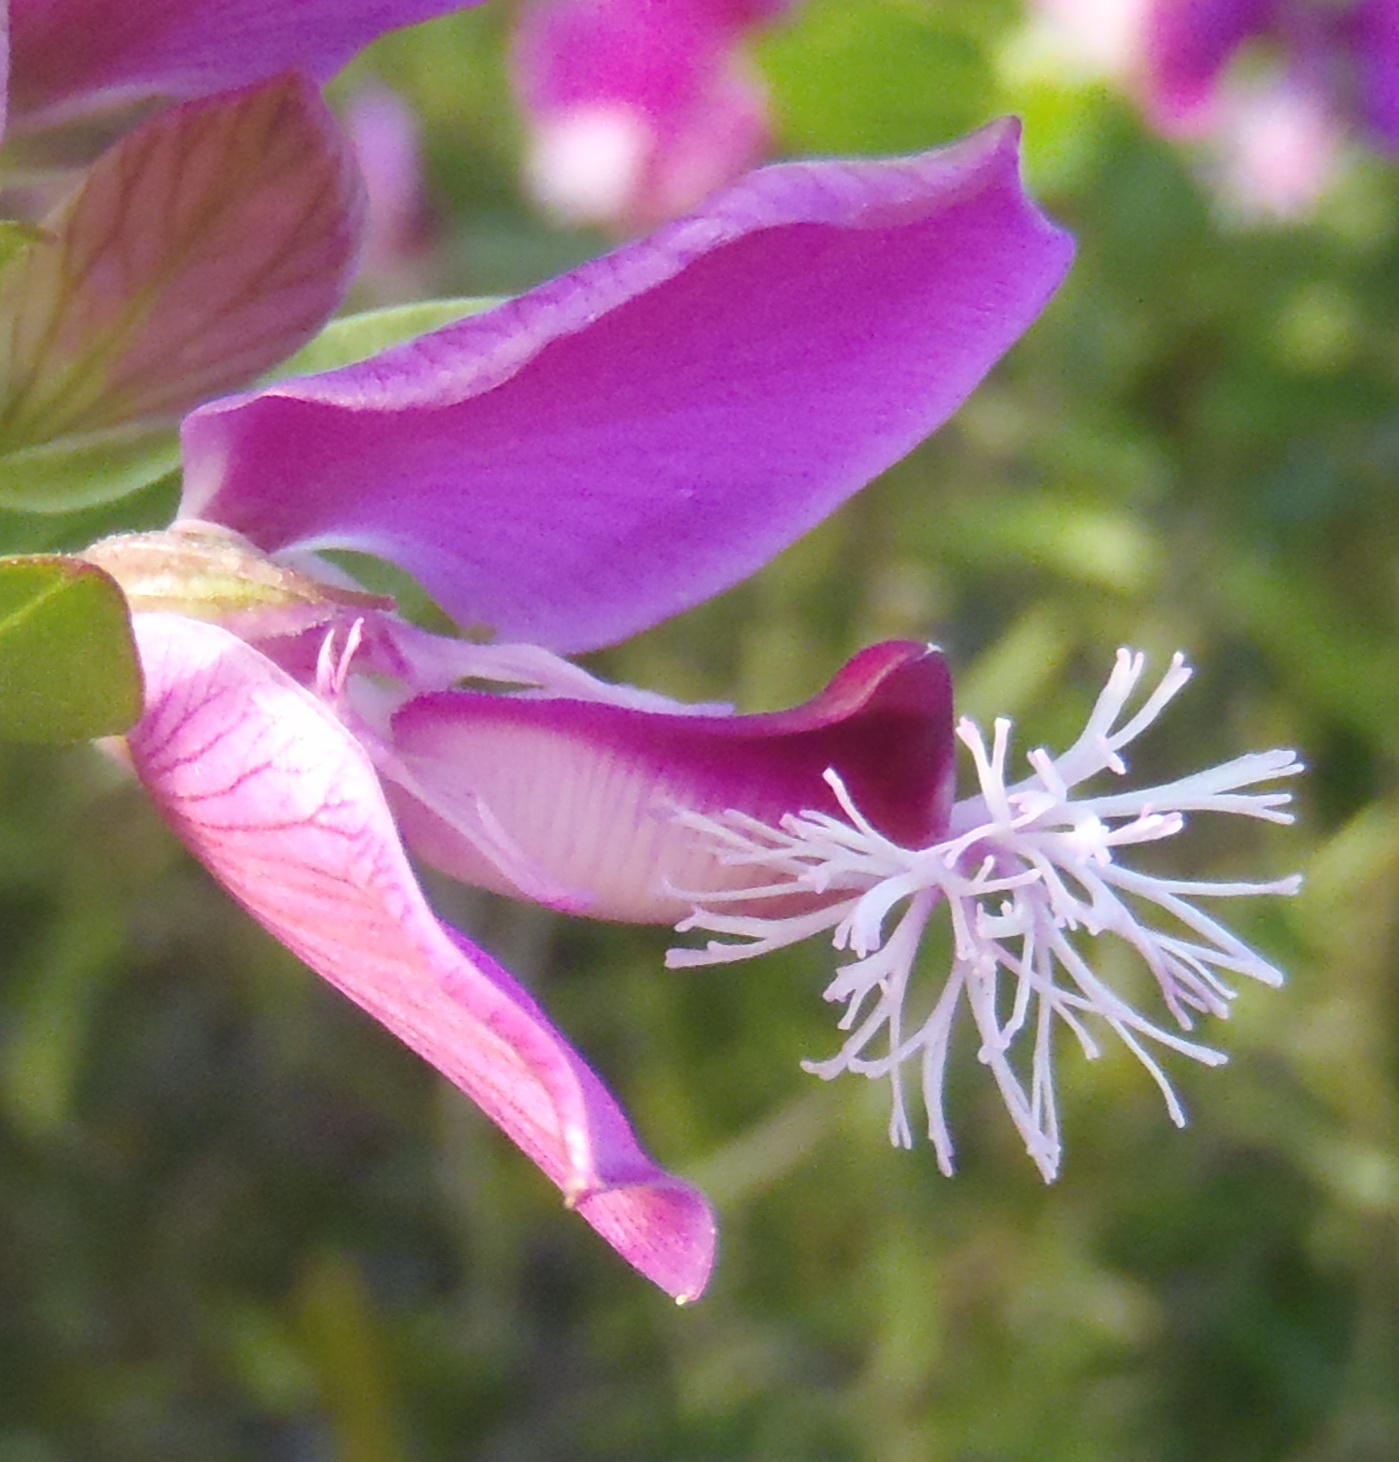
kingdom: Plantae
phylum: Tracheophyta
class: Magnoliopsida
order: Fabales
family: Polygalaceae
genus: Polygala
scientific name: Polygala myrtifolia
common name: Myrtle-leaf milkwort
